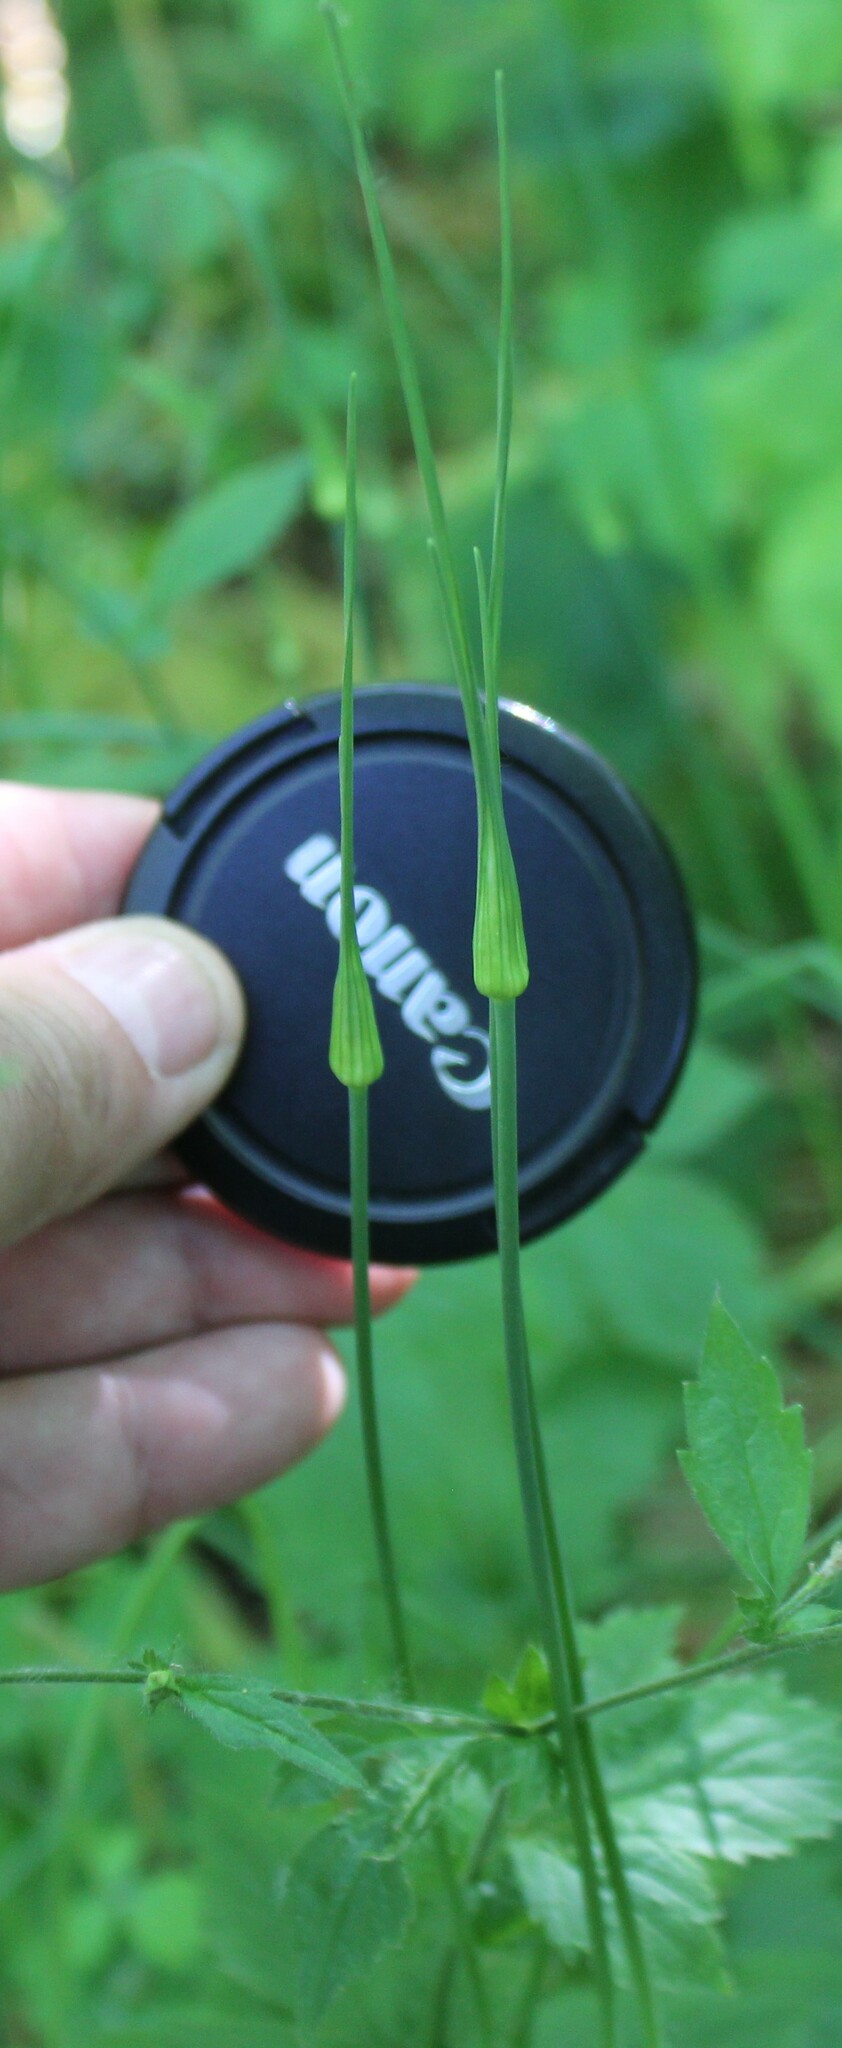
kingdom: Plantae
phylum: Tracheophyta
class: Liliopsida
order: Asparagales
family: Amaryllidaceae
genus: Allium
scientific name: Allium oleraceum
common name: Field garlic
